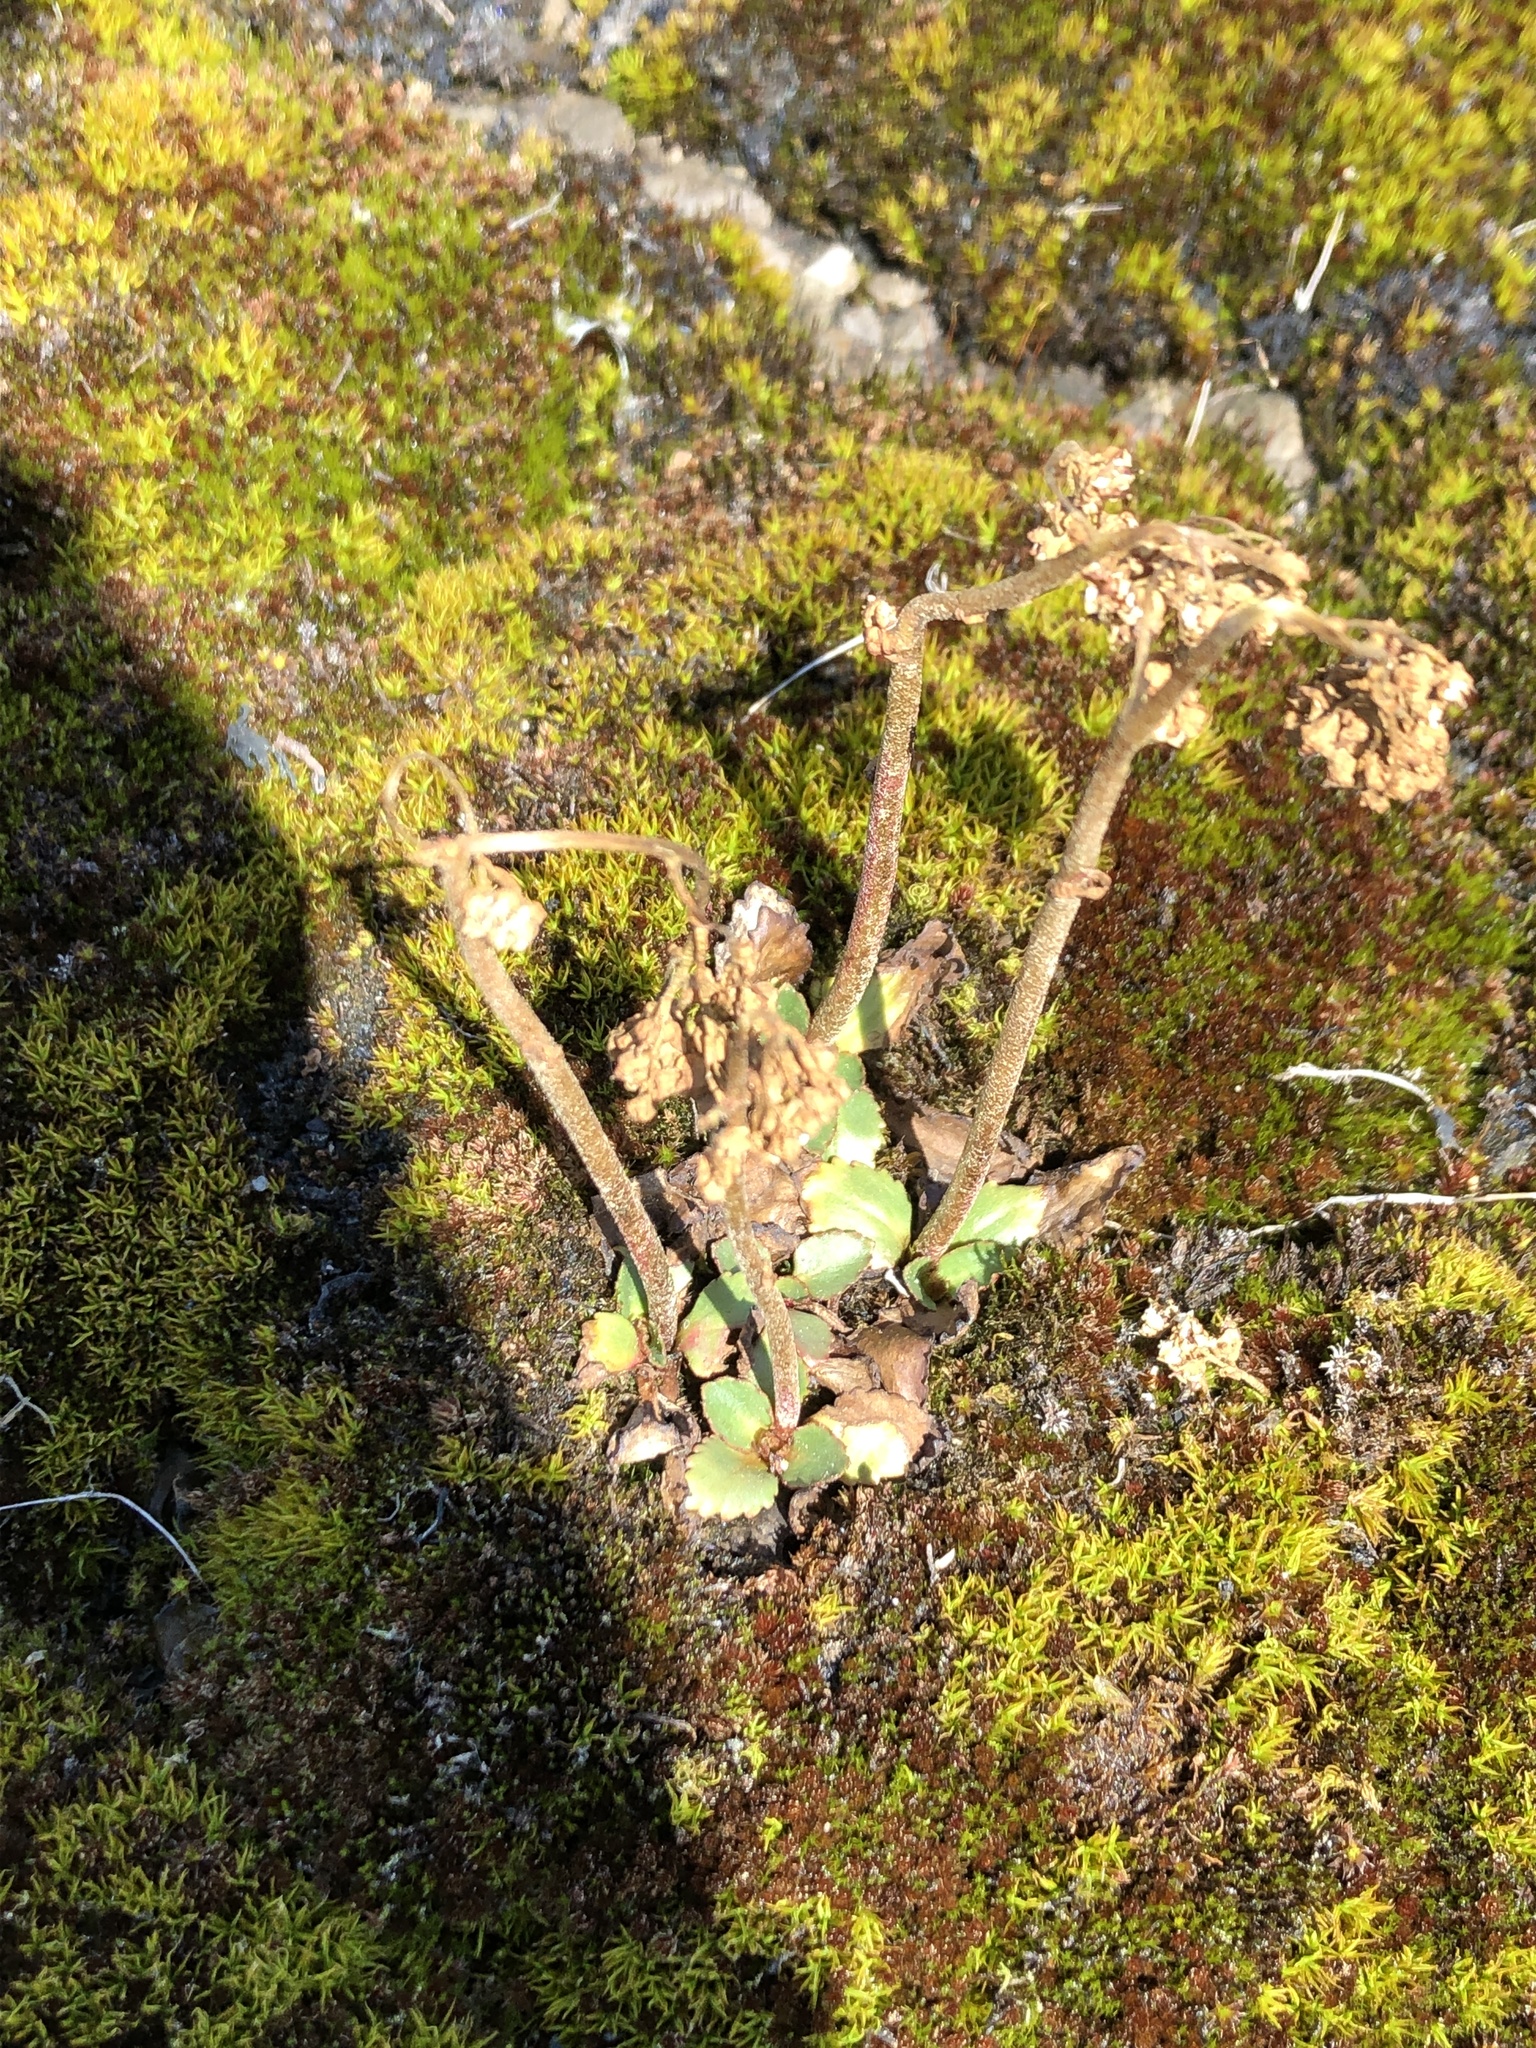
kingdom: Plantae
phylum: Tracheophyta
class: Magnoliopsida
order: Saxifragales
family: Saxifragaceae
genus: Micranthes
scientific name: Micranthes virginiensis
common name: Early saxifrage
